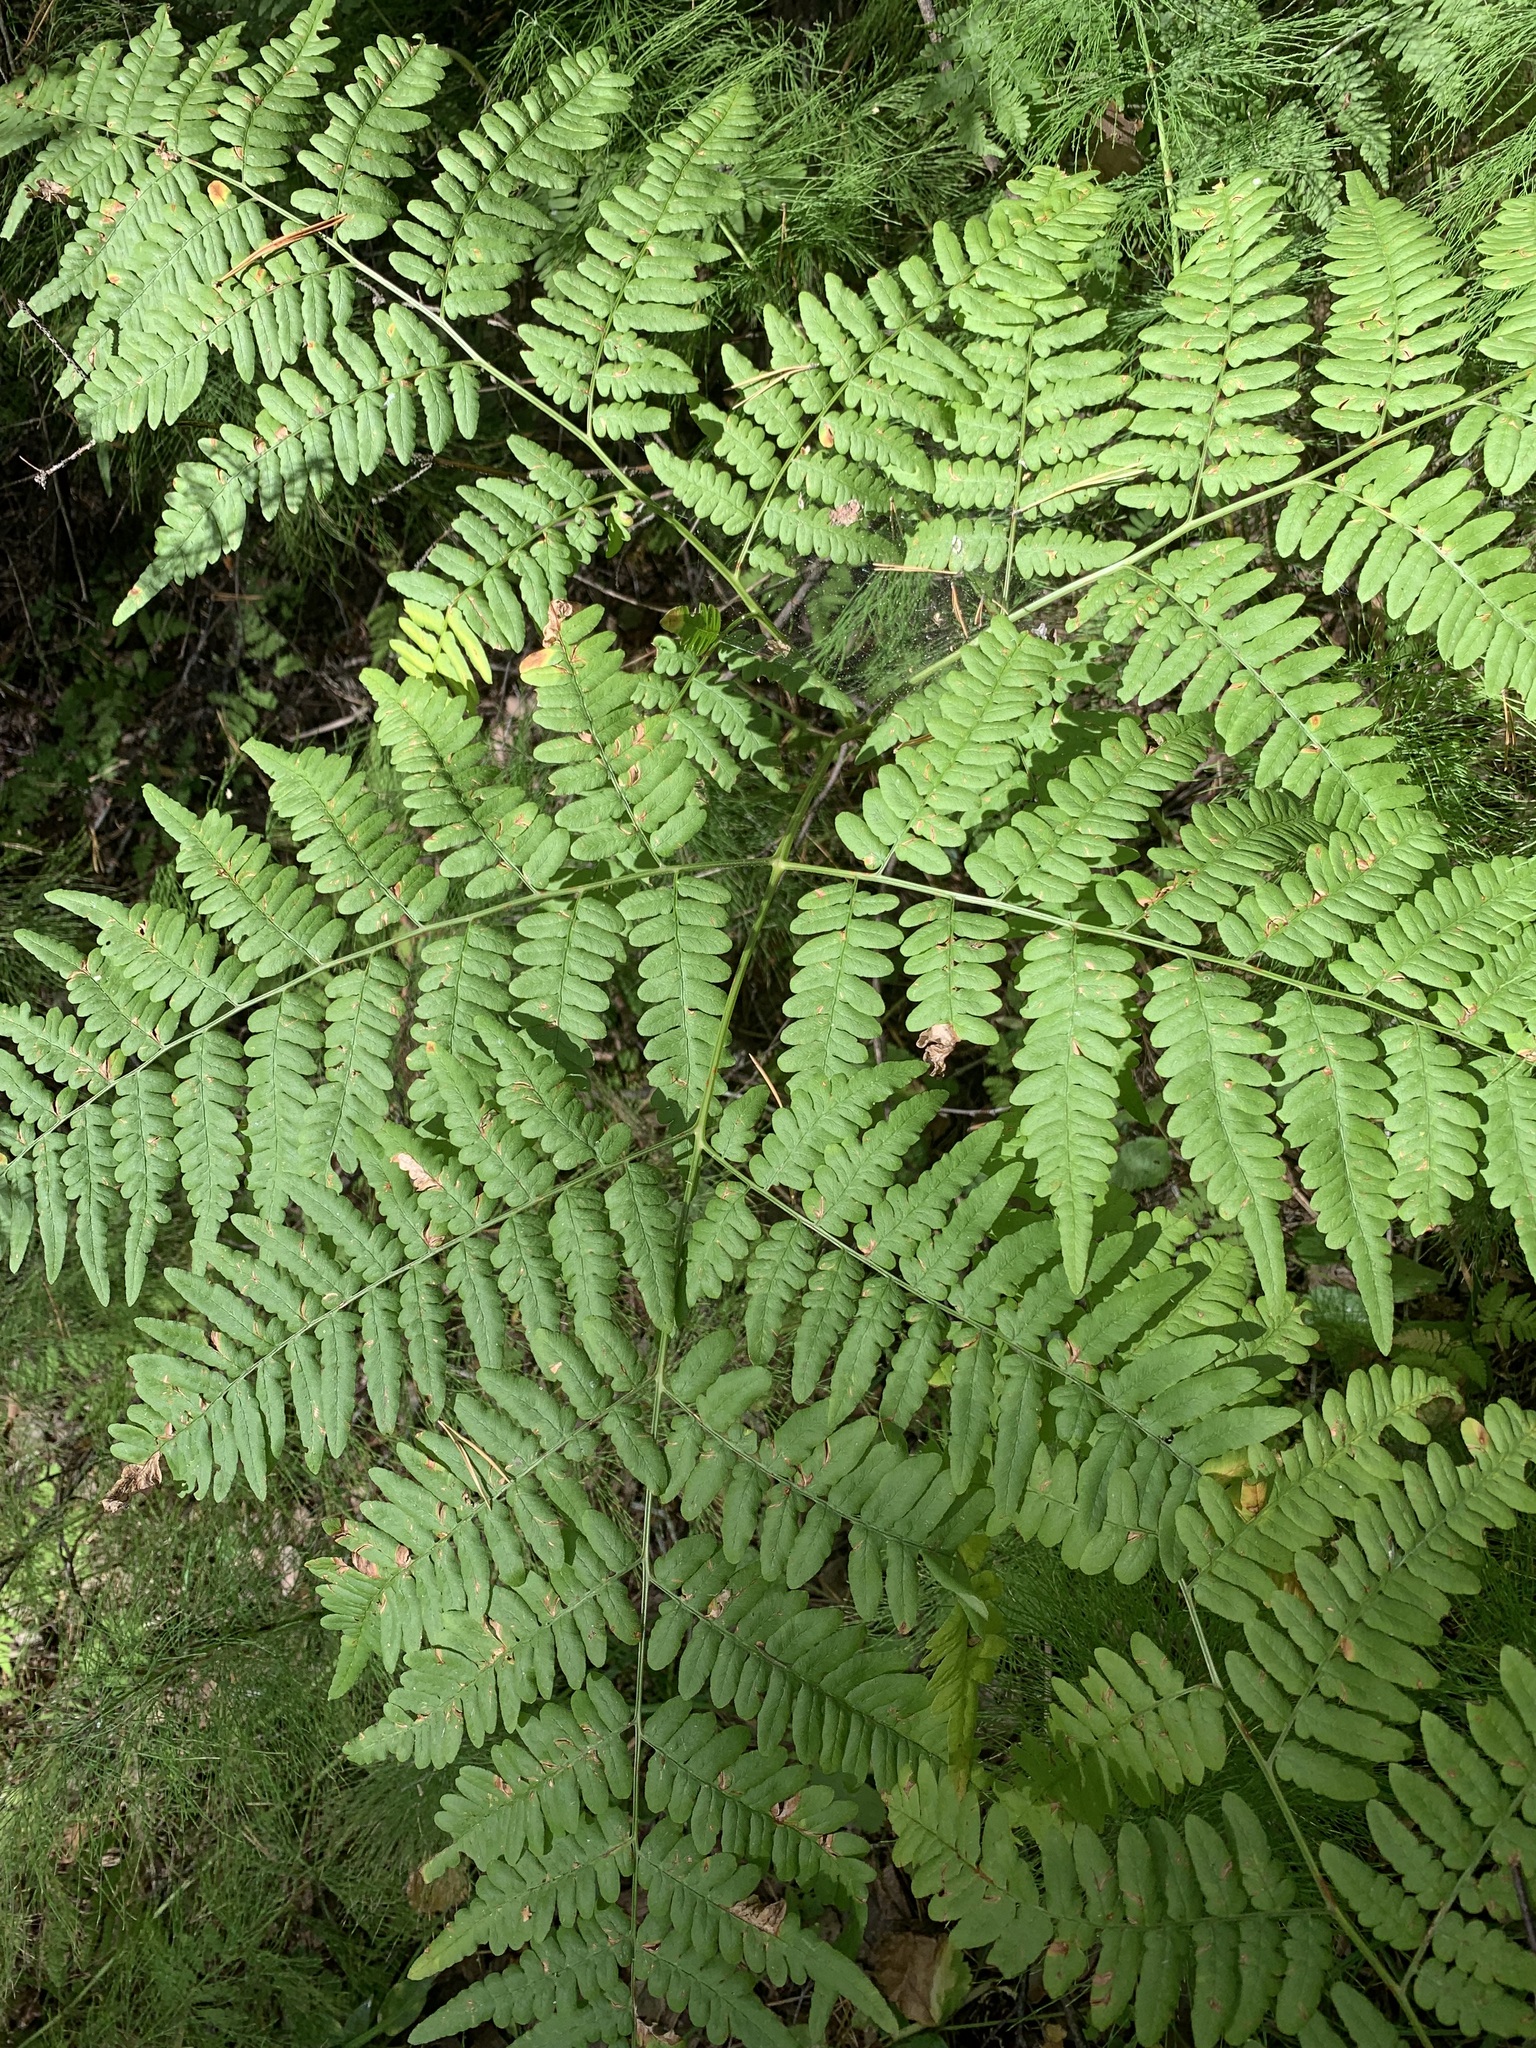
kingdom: Plantae
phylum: Tracheophyta
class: Polypodiopsida
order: Polypodiales
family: Dennstaedtiaceae
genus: Pteridium
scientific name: Pteridium aquilinum
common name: Bracken
